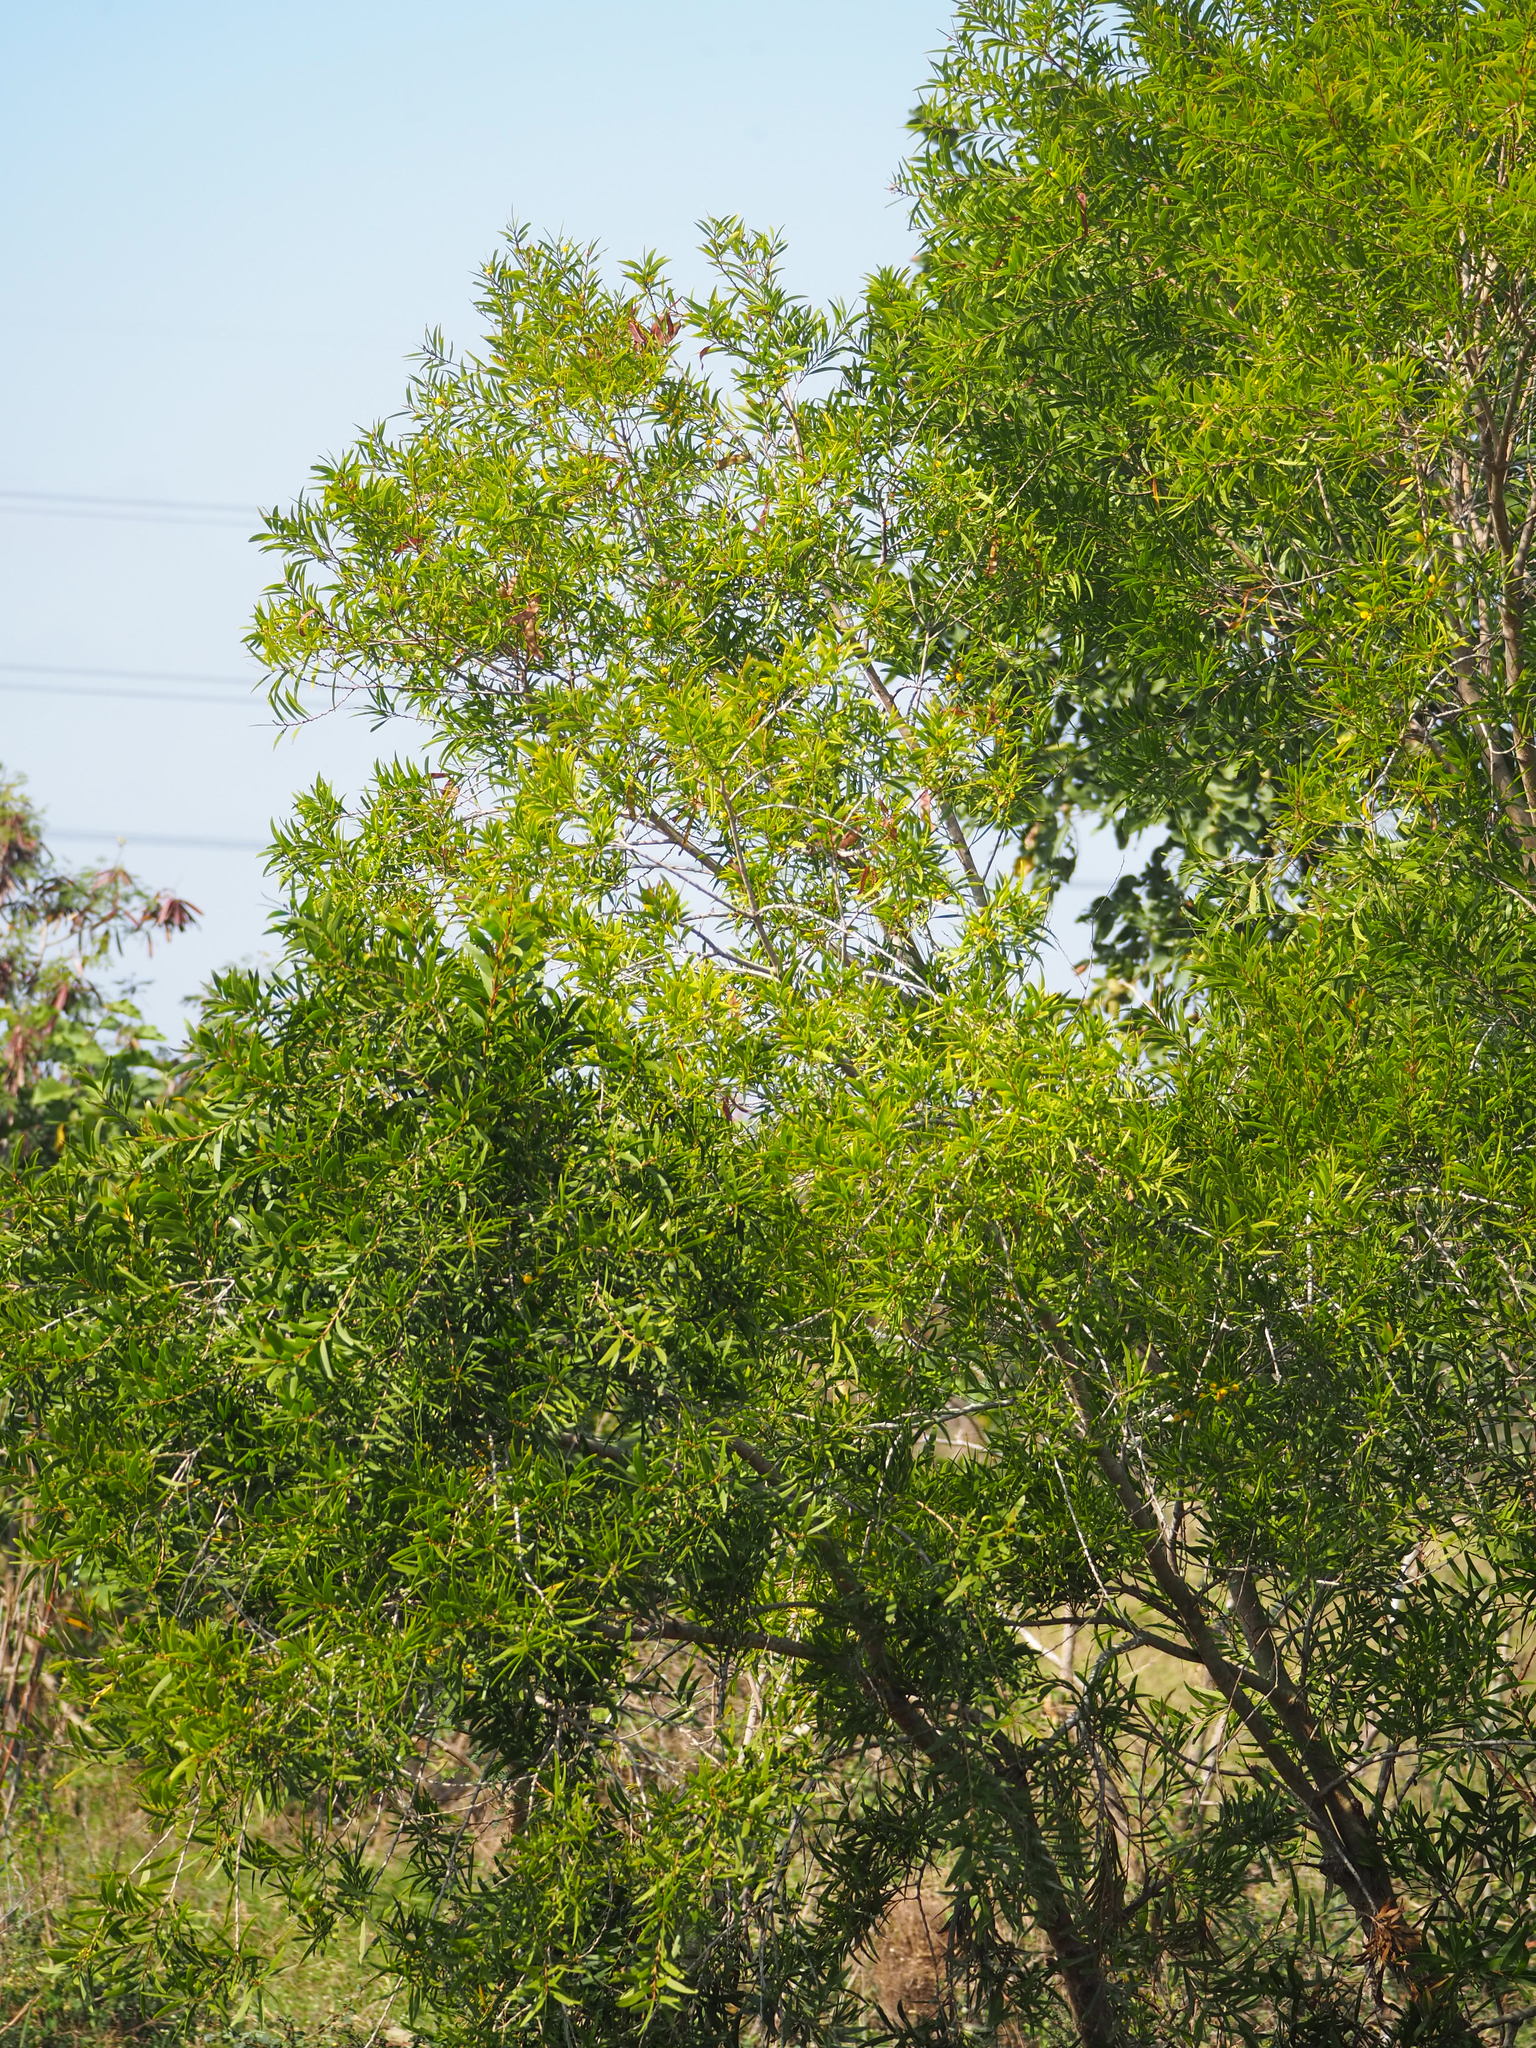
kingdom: Plantae
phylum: Tracheophyta
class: Magnoliopsida
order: Fabales
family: Fabaceae
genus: Acacia
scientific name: Acacia confusa
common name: Formosan koa
